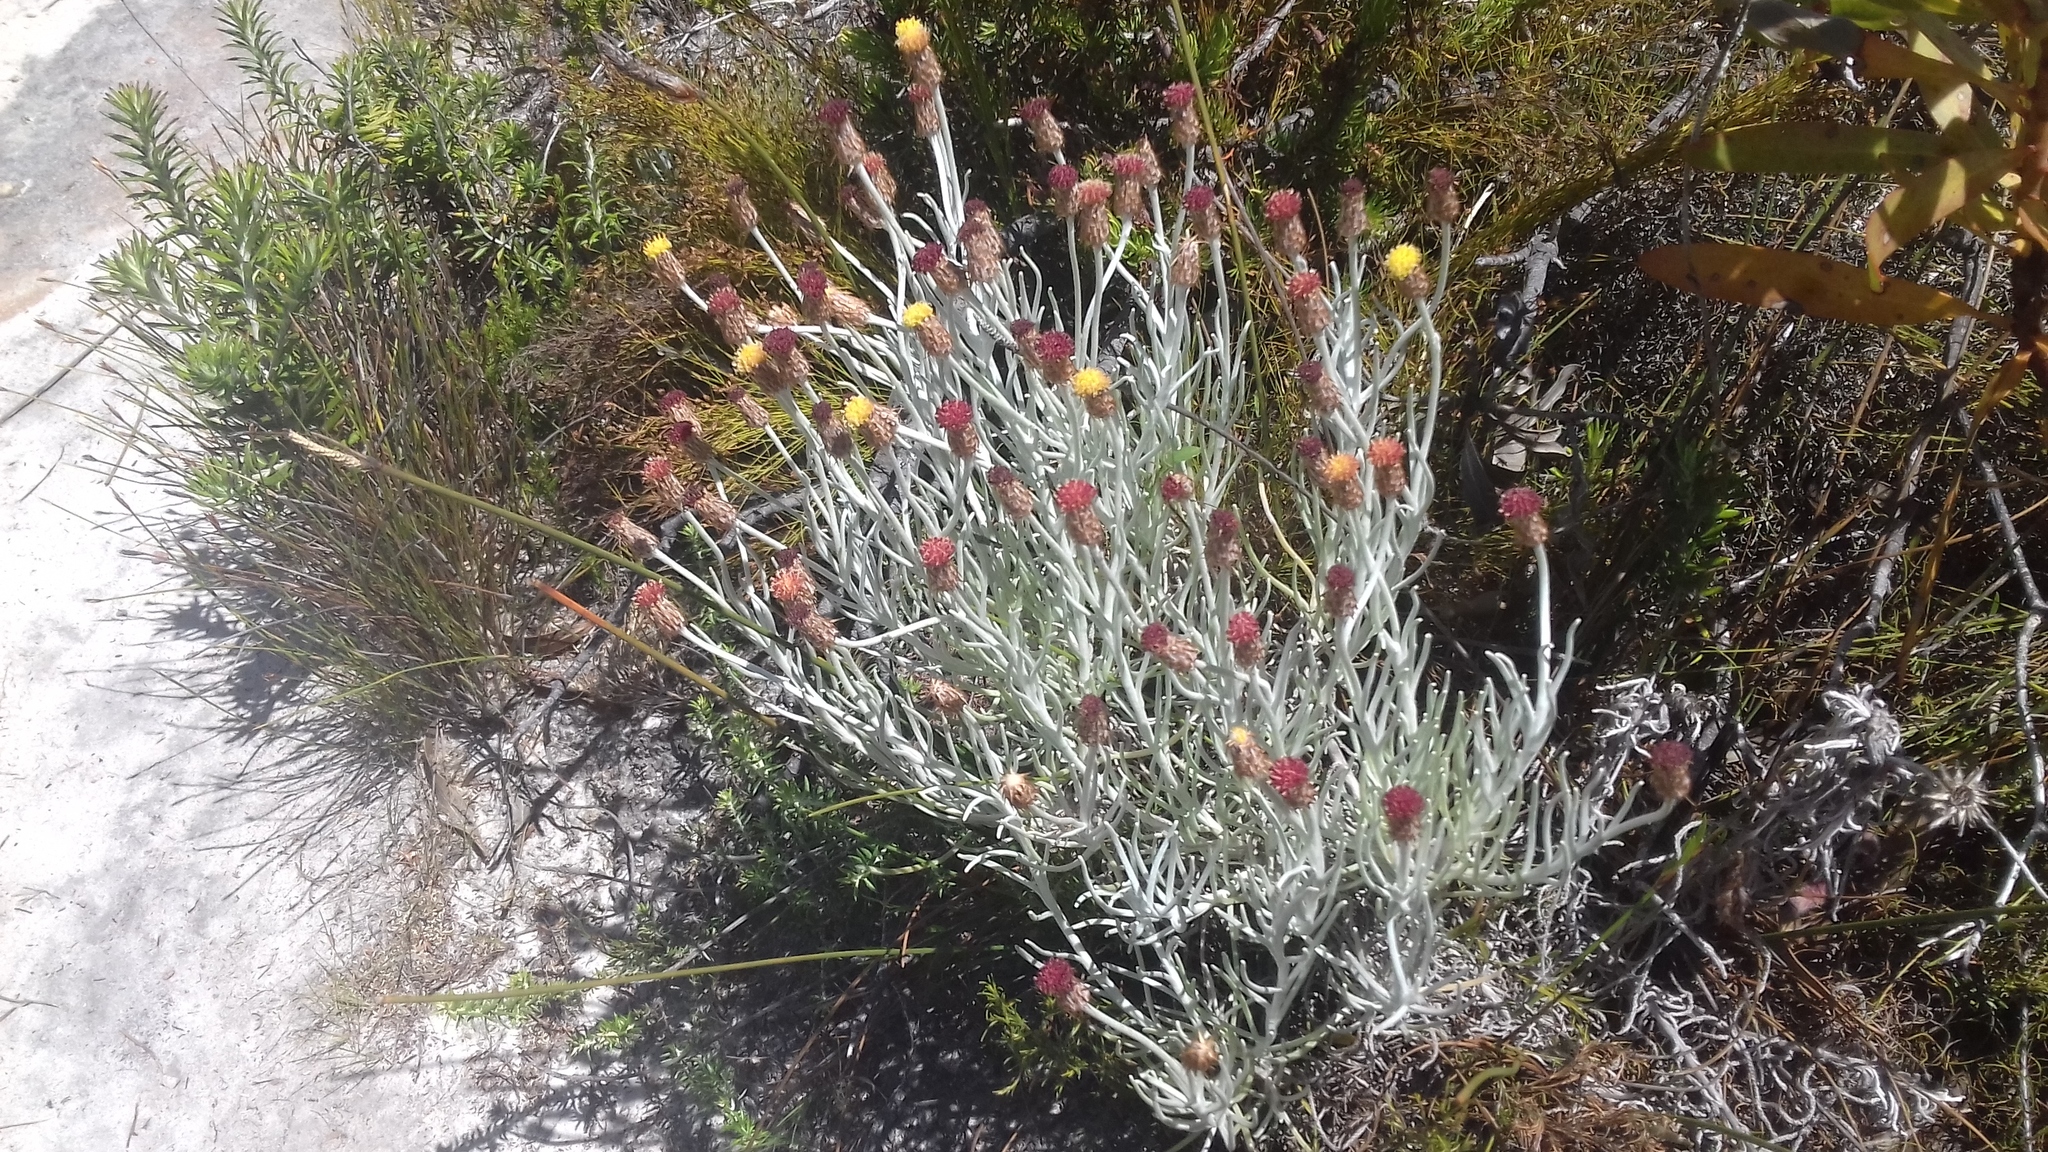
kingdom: Plantae
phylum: Tracheophyta
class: Magnoliopsida
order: Asterales
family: Asteraceae
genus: Syncarpha
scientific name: Syncarpha gnaphaloides
